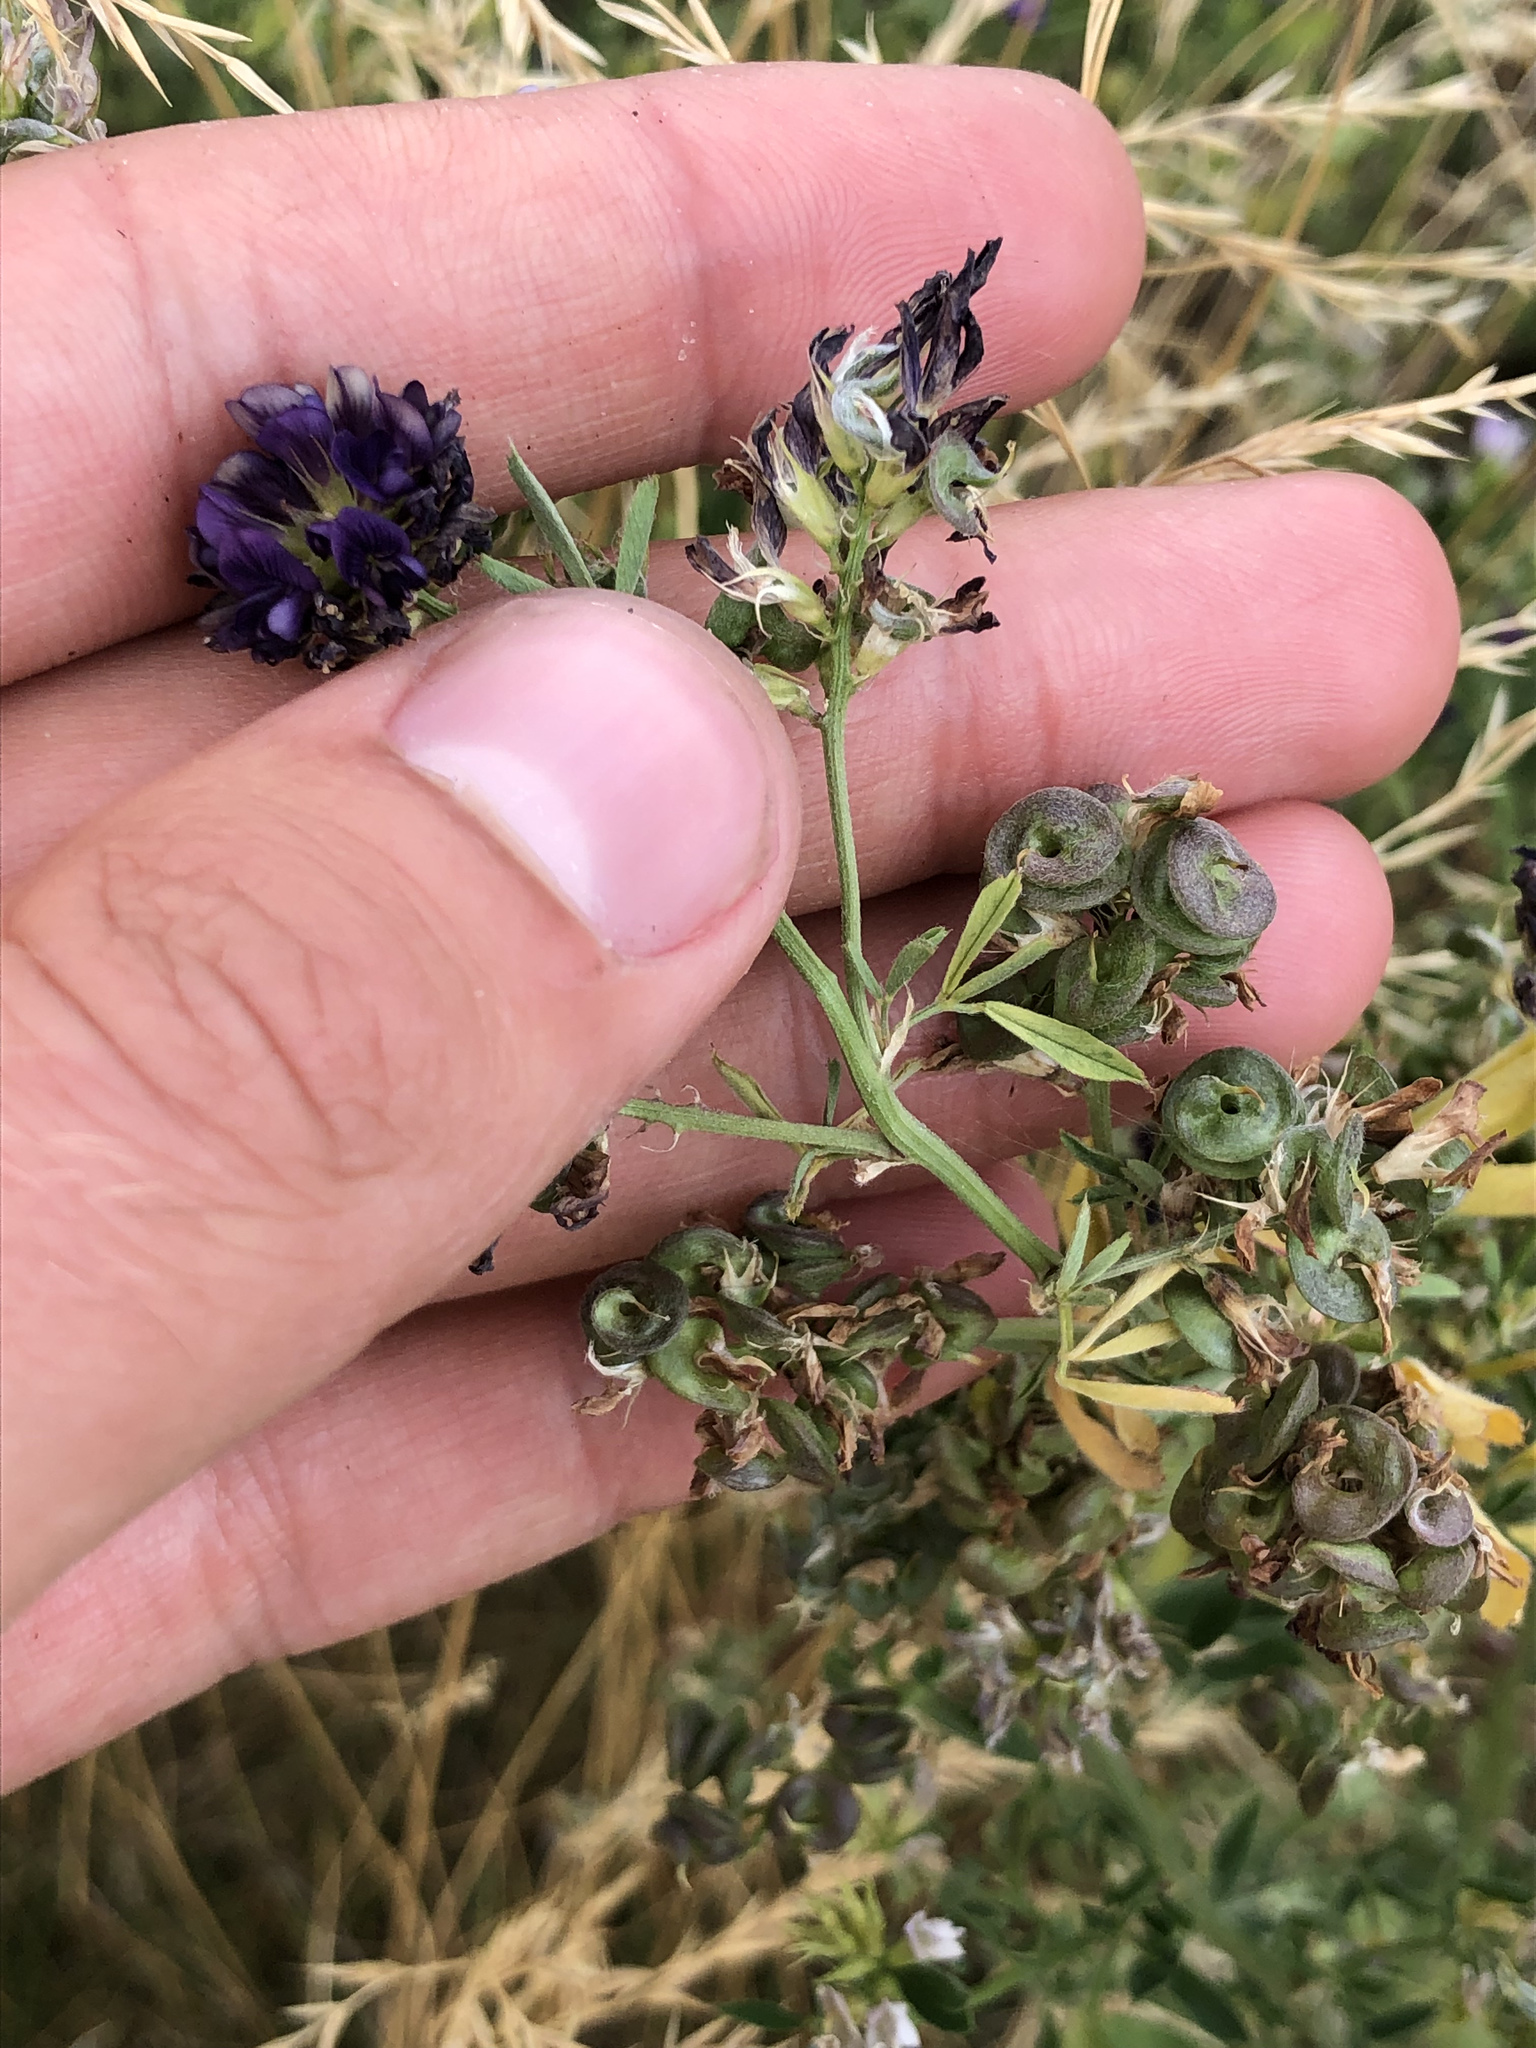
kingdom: Plantae
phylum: Tracheophyta
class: Magnoliopsida
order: Fabales
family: Fabaceae
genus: Medicago
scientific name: Medicago sativa
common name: Alfalfa
